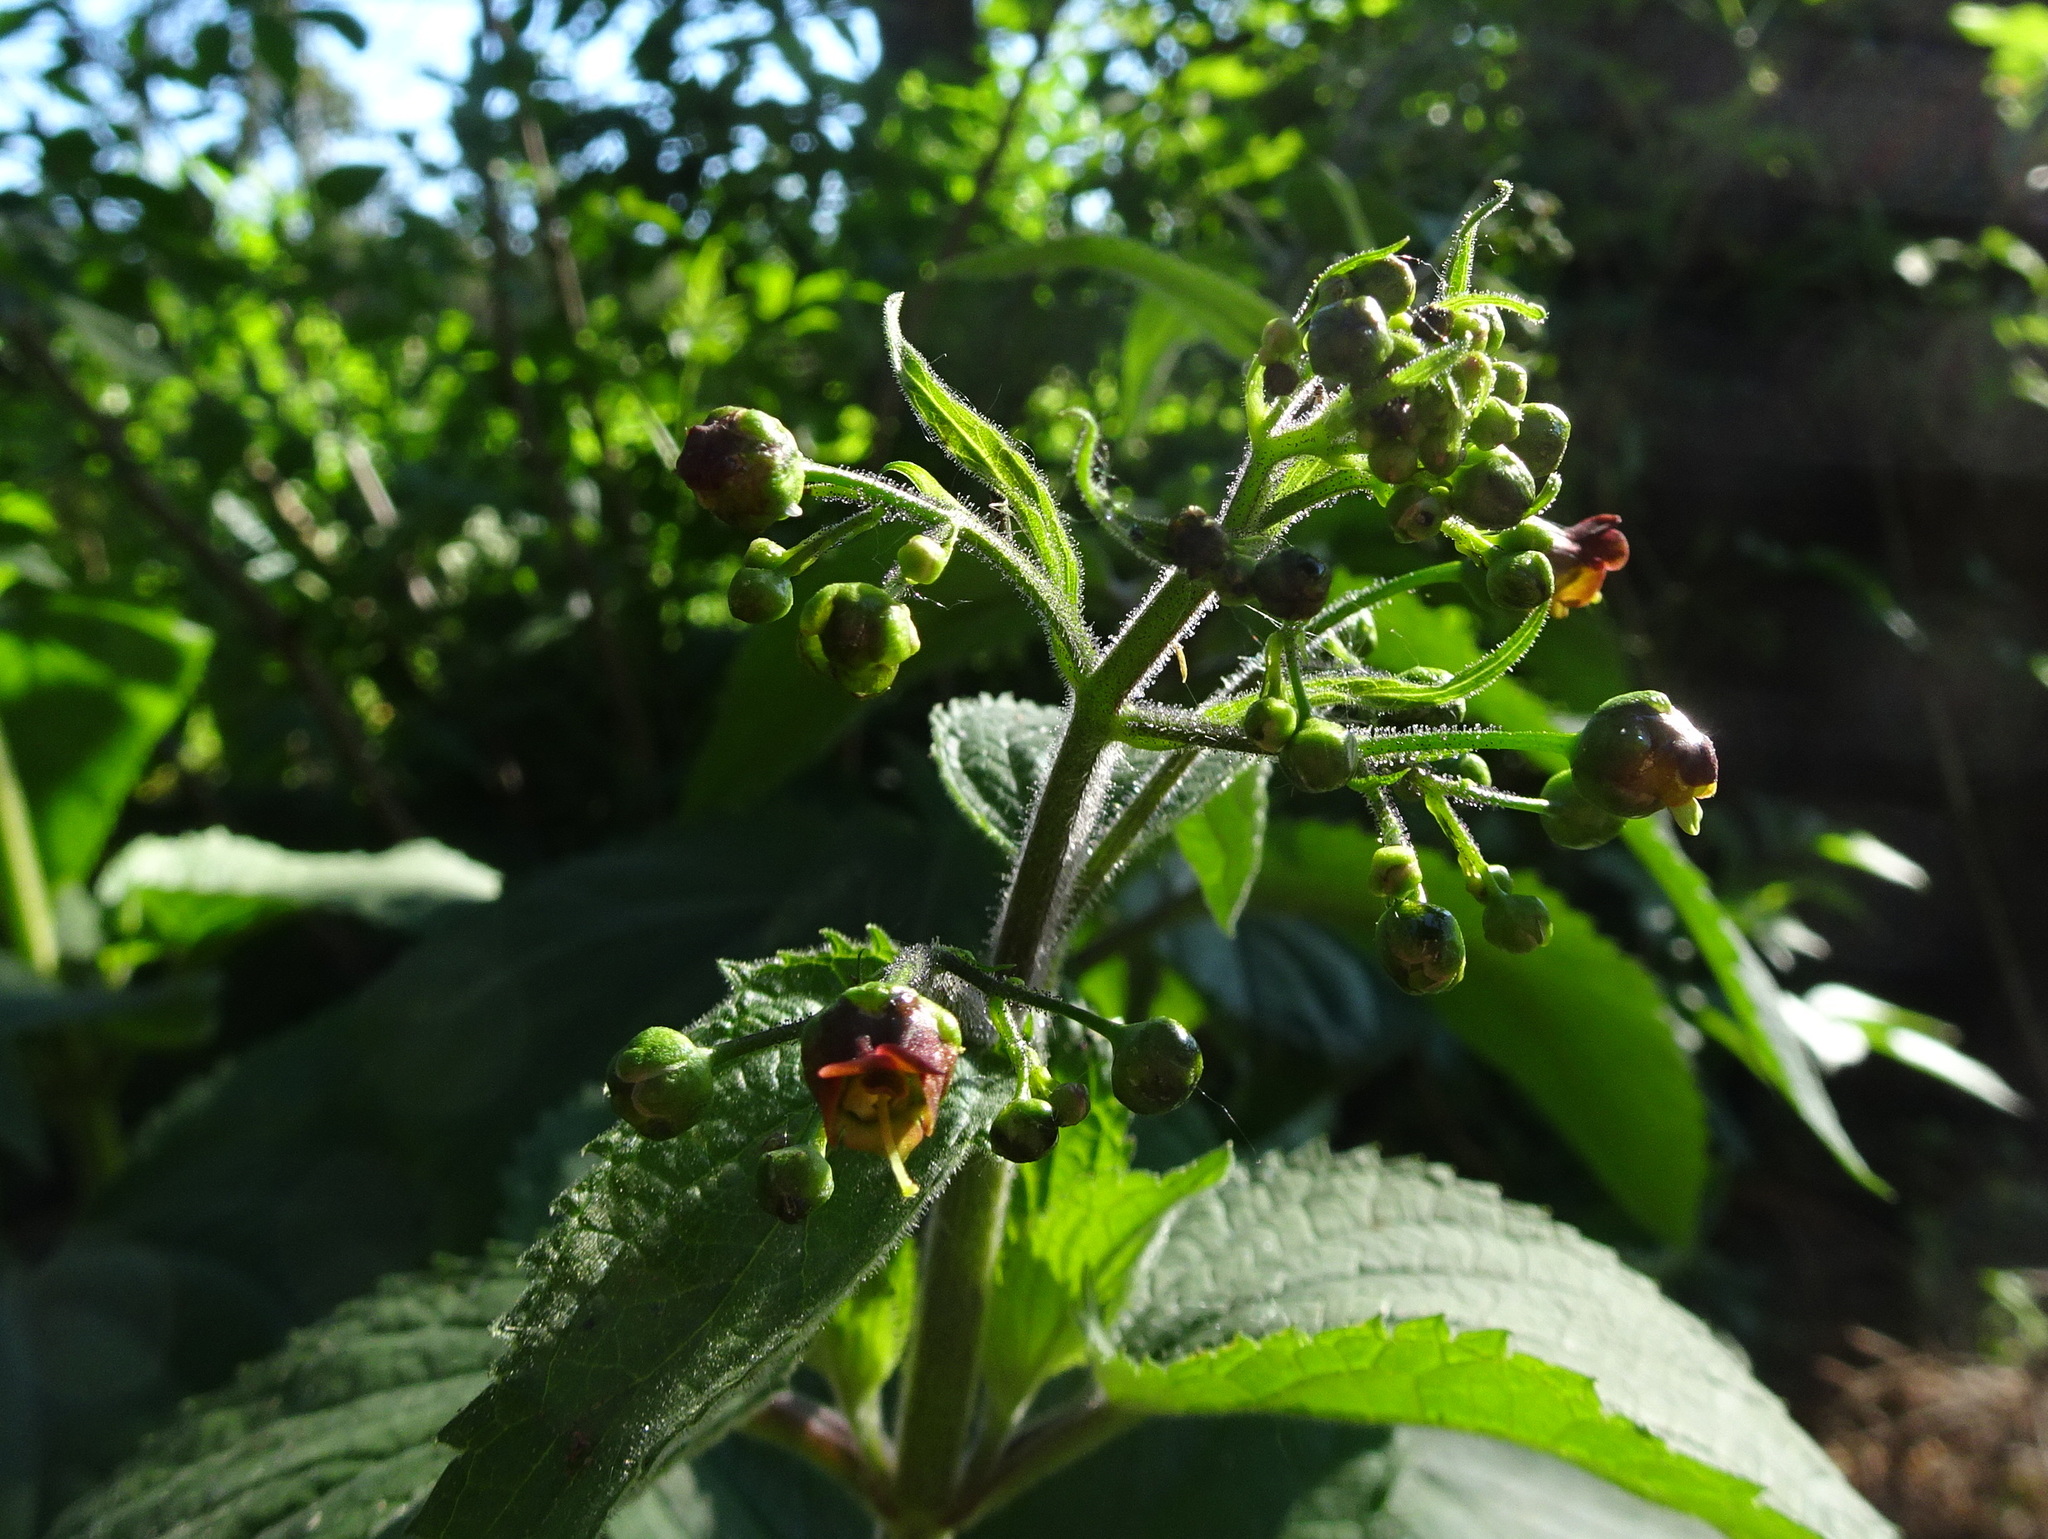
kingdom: Plantae
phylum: Tracheophyta
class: Magnoliopsida
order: Lamiales
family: Scrophulariaceae
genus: Scrophularia
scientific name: Scrophularia alpestris
